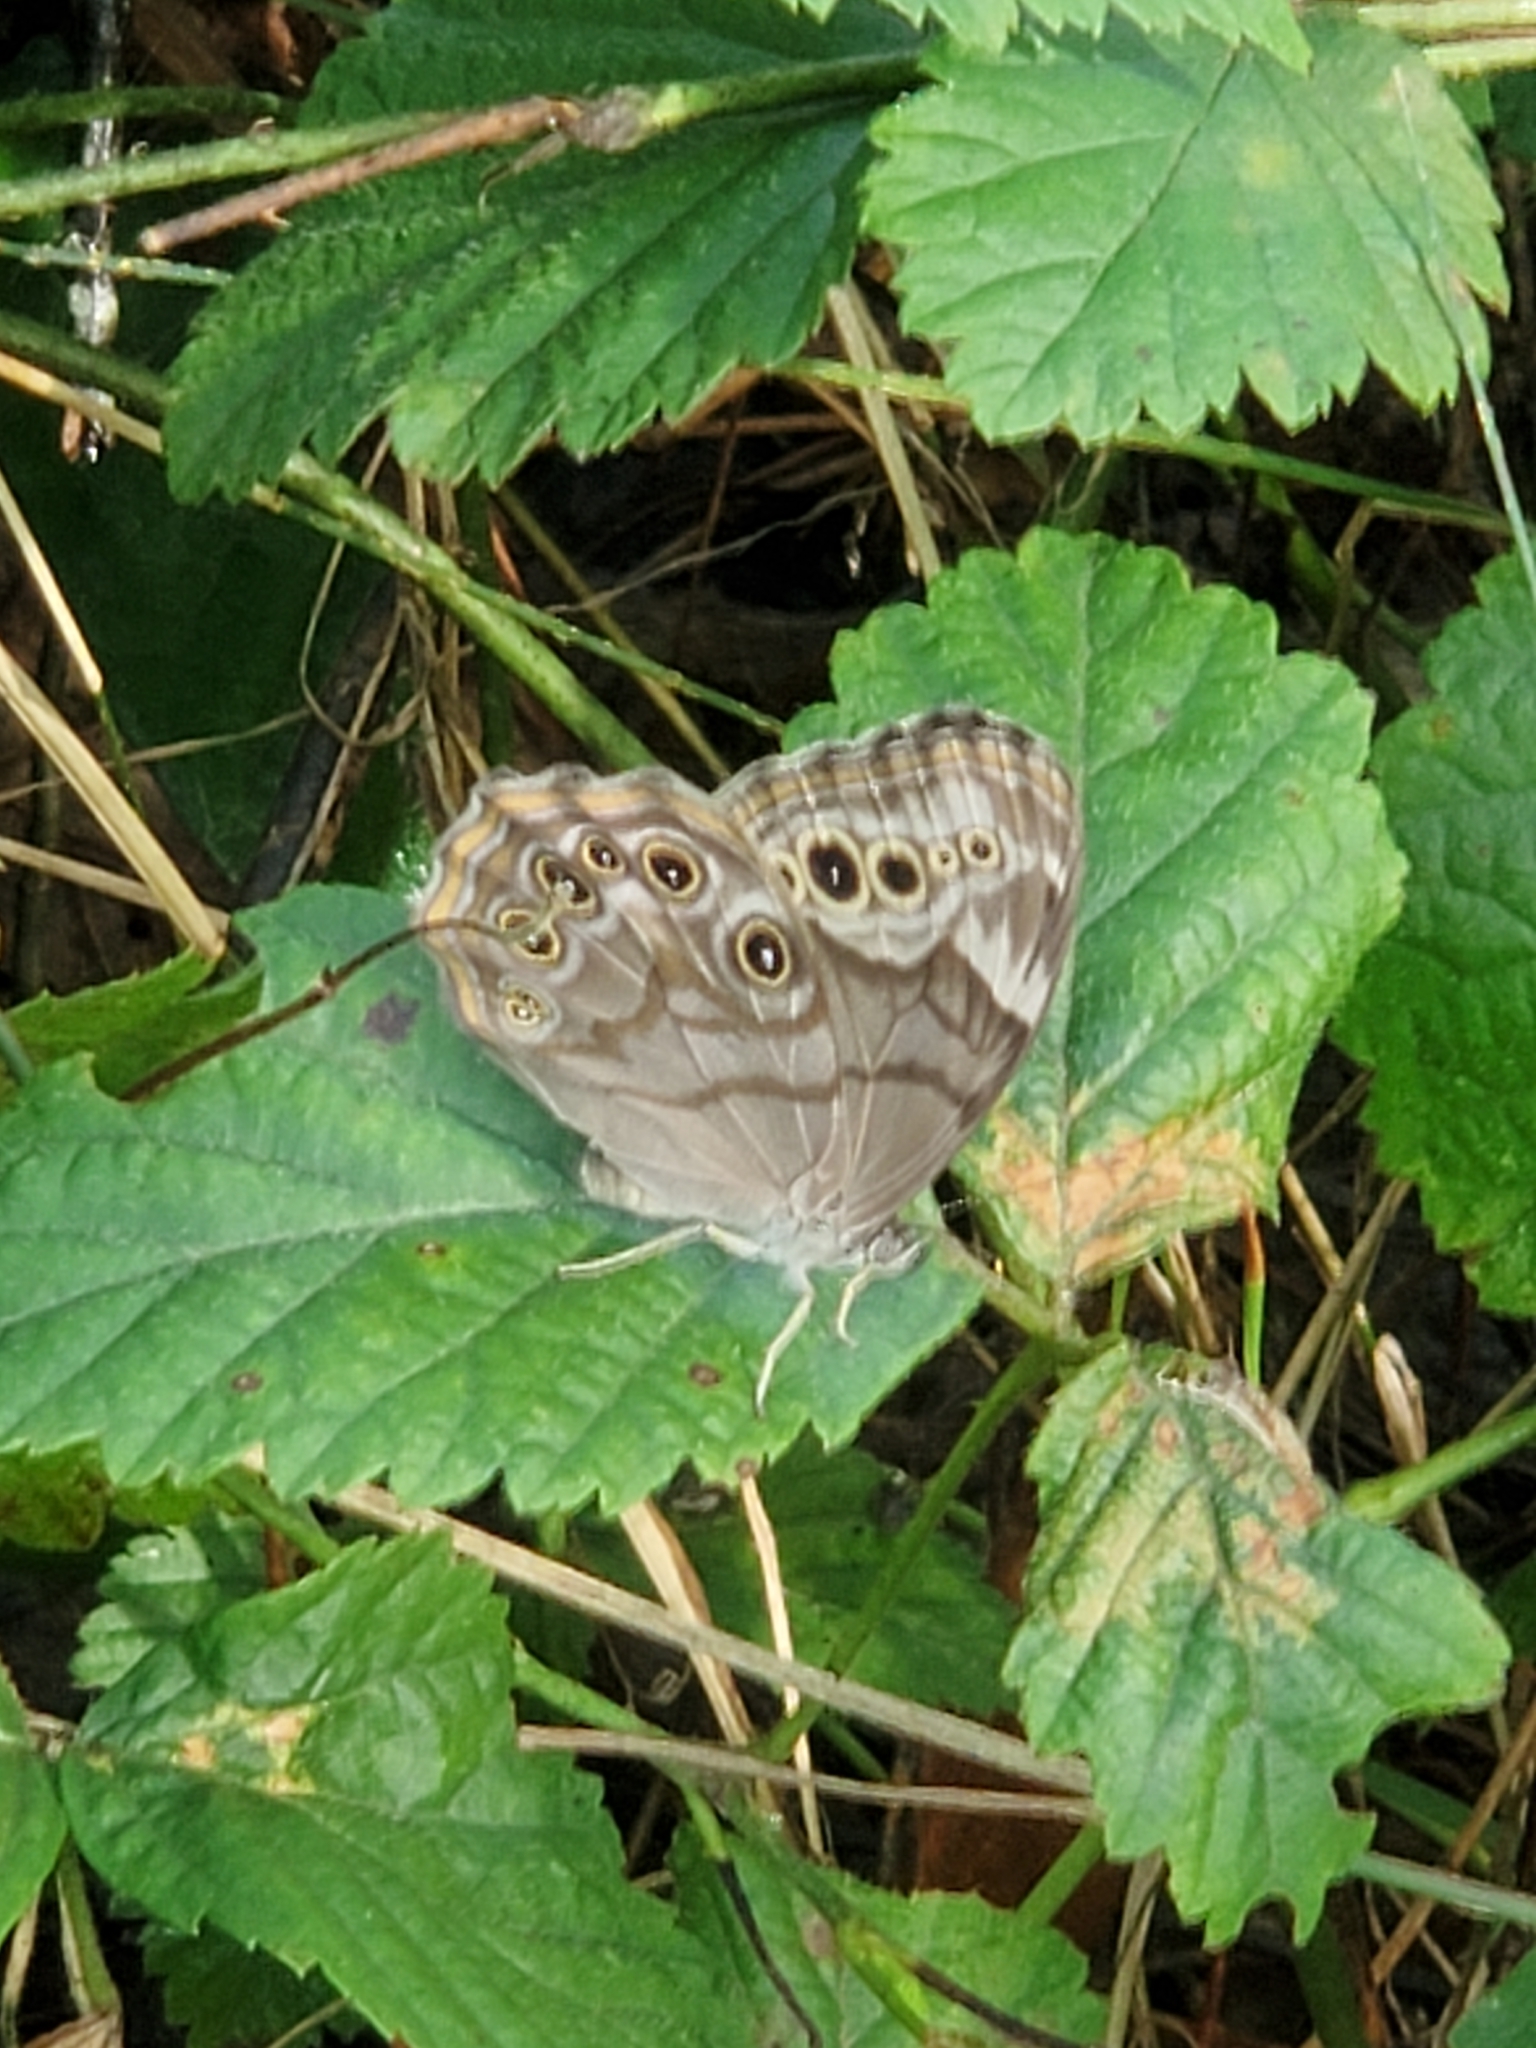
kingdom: Animalia
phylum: Arthropoda
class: Insecta
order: Lepidoptera
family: Nymphalidae
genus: Lethe
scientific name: Lethe anthedon
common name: Northern pearly-eye
